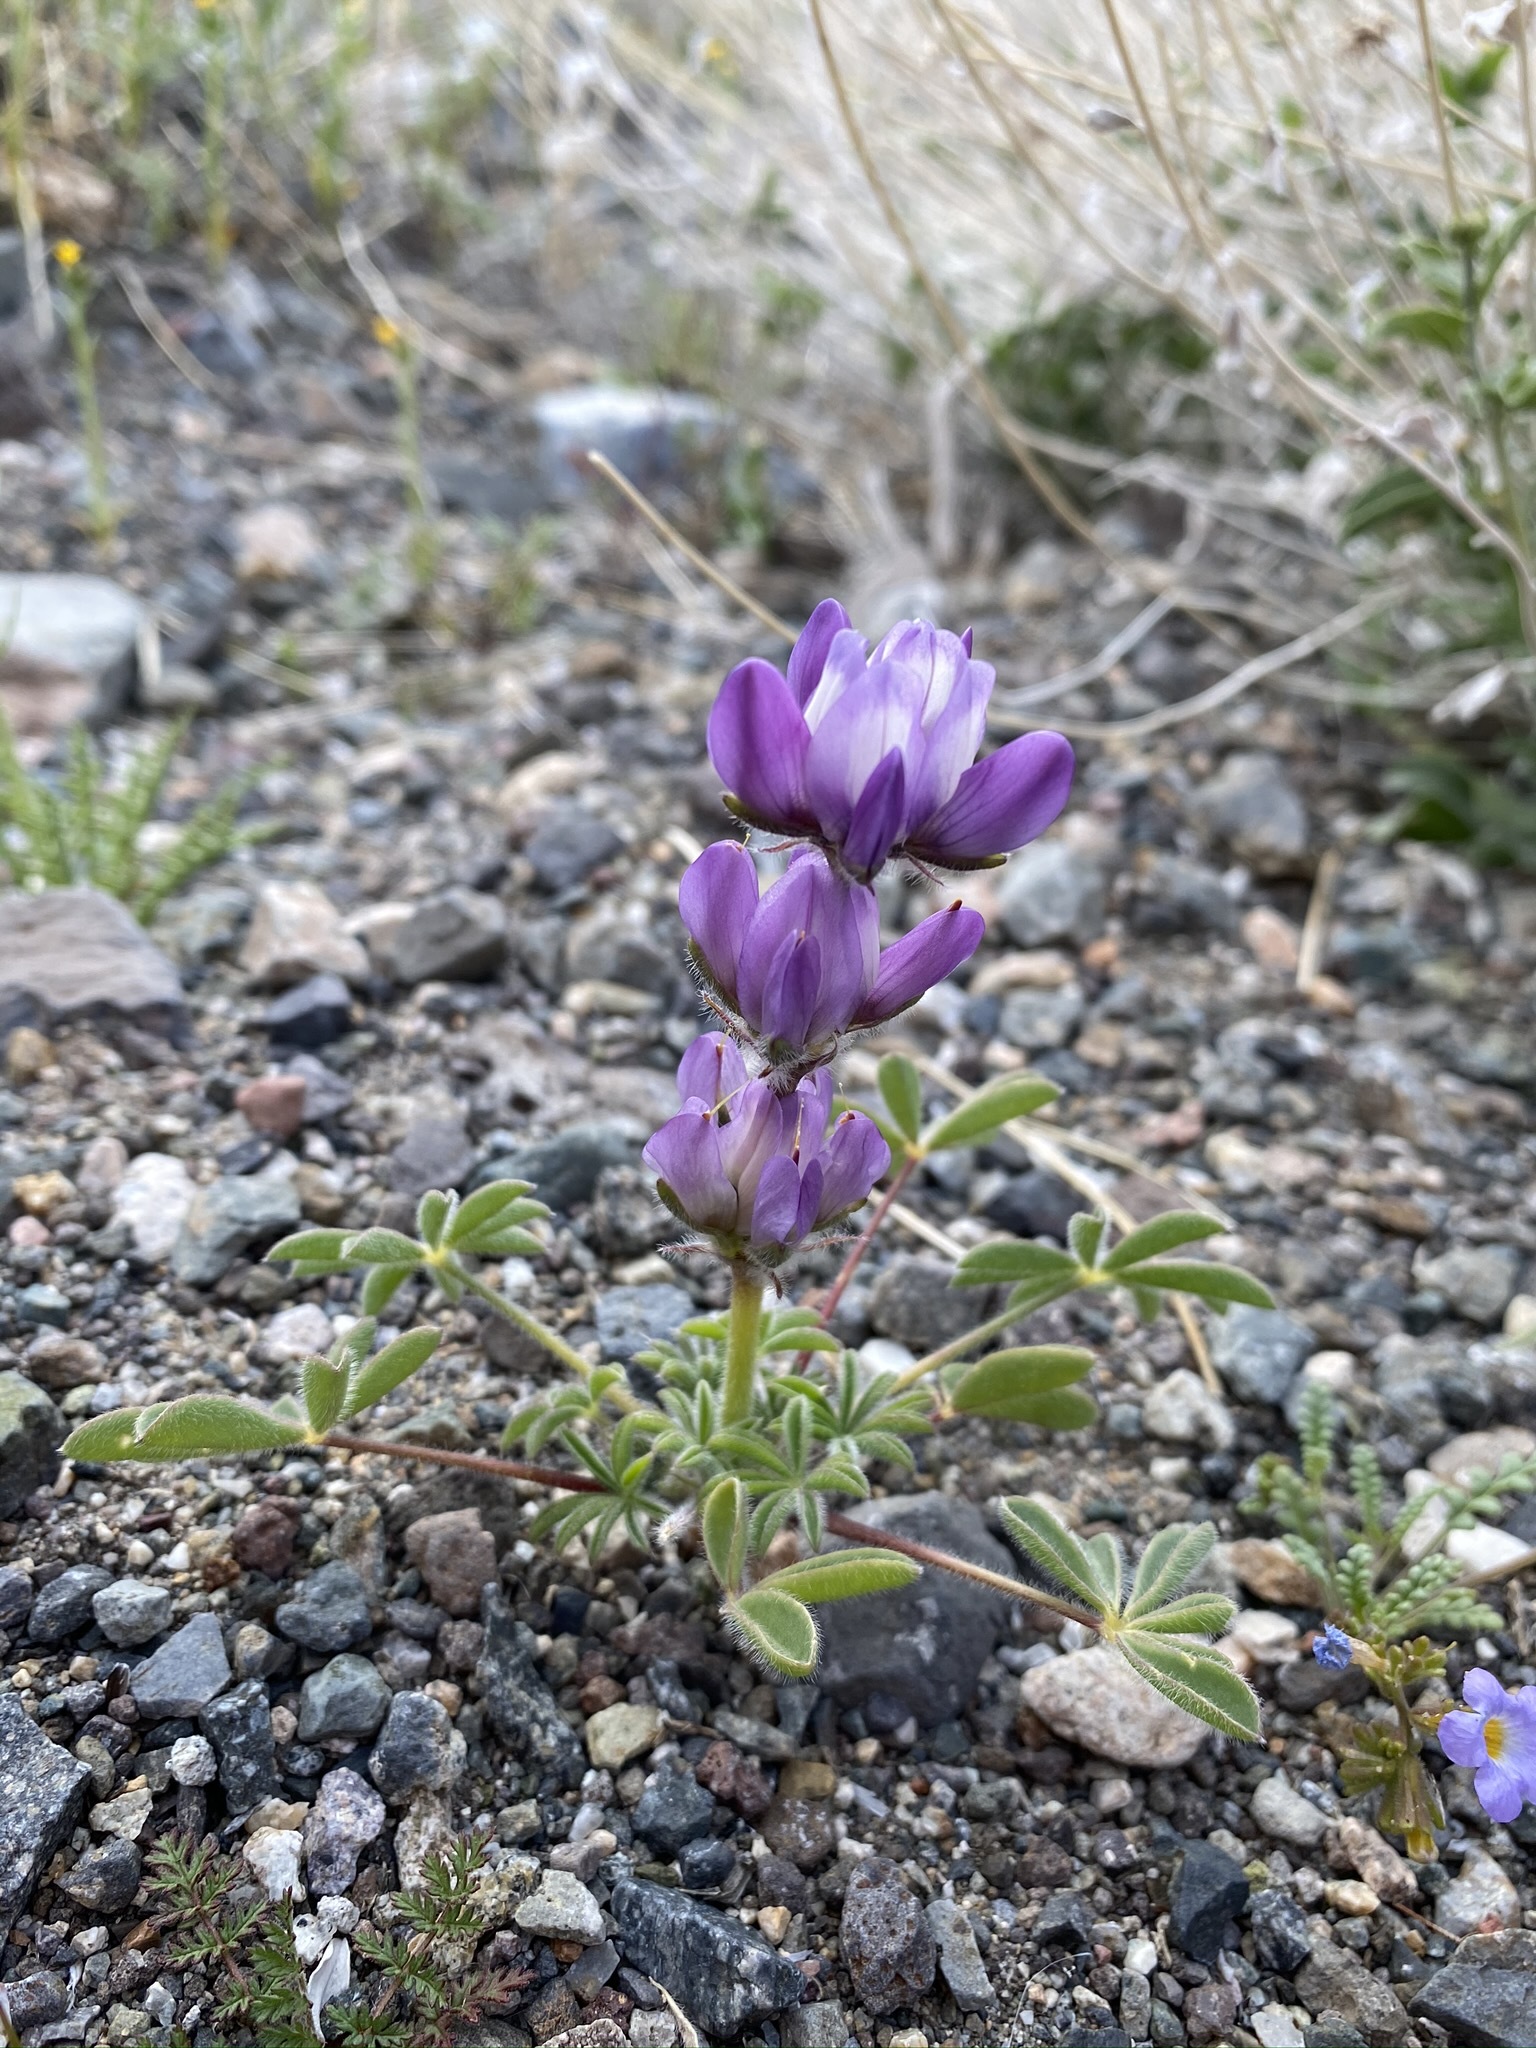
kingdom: Plantae
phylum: Tracheophyta
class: Magnoliopsida
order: Fabales
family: Fabaceae
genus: Lupinus
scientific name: Lupinus microcarpus
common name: Chick lupine
